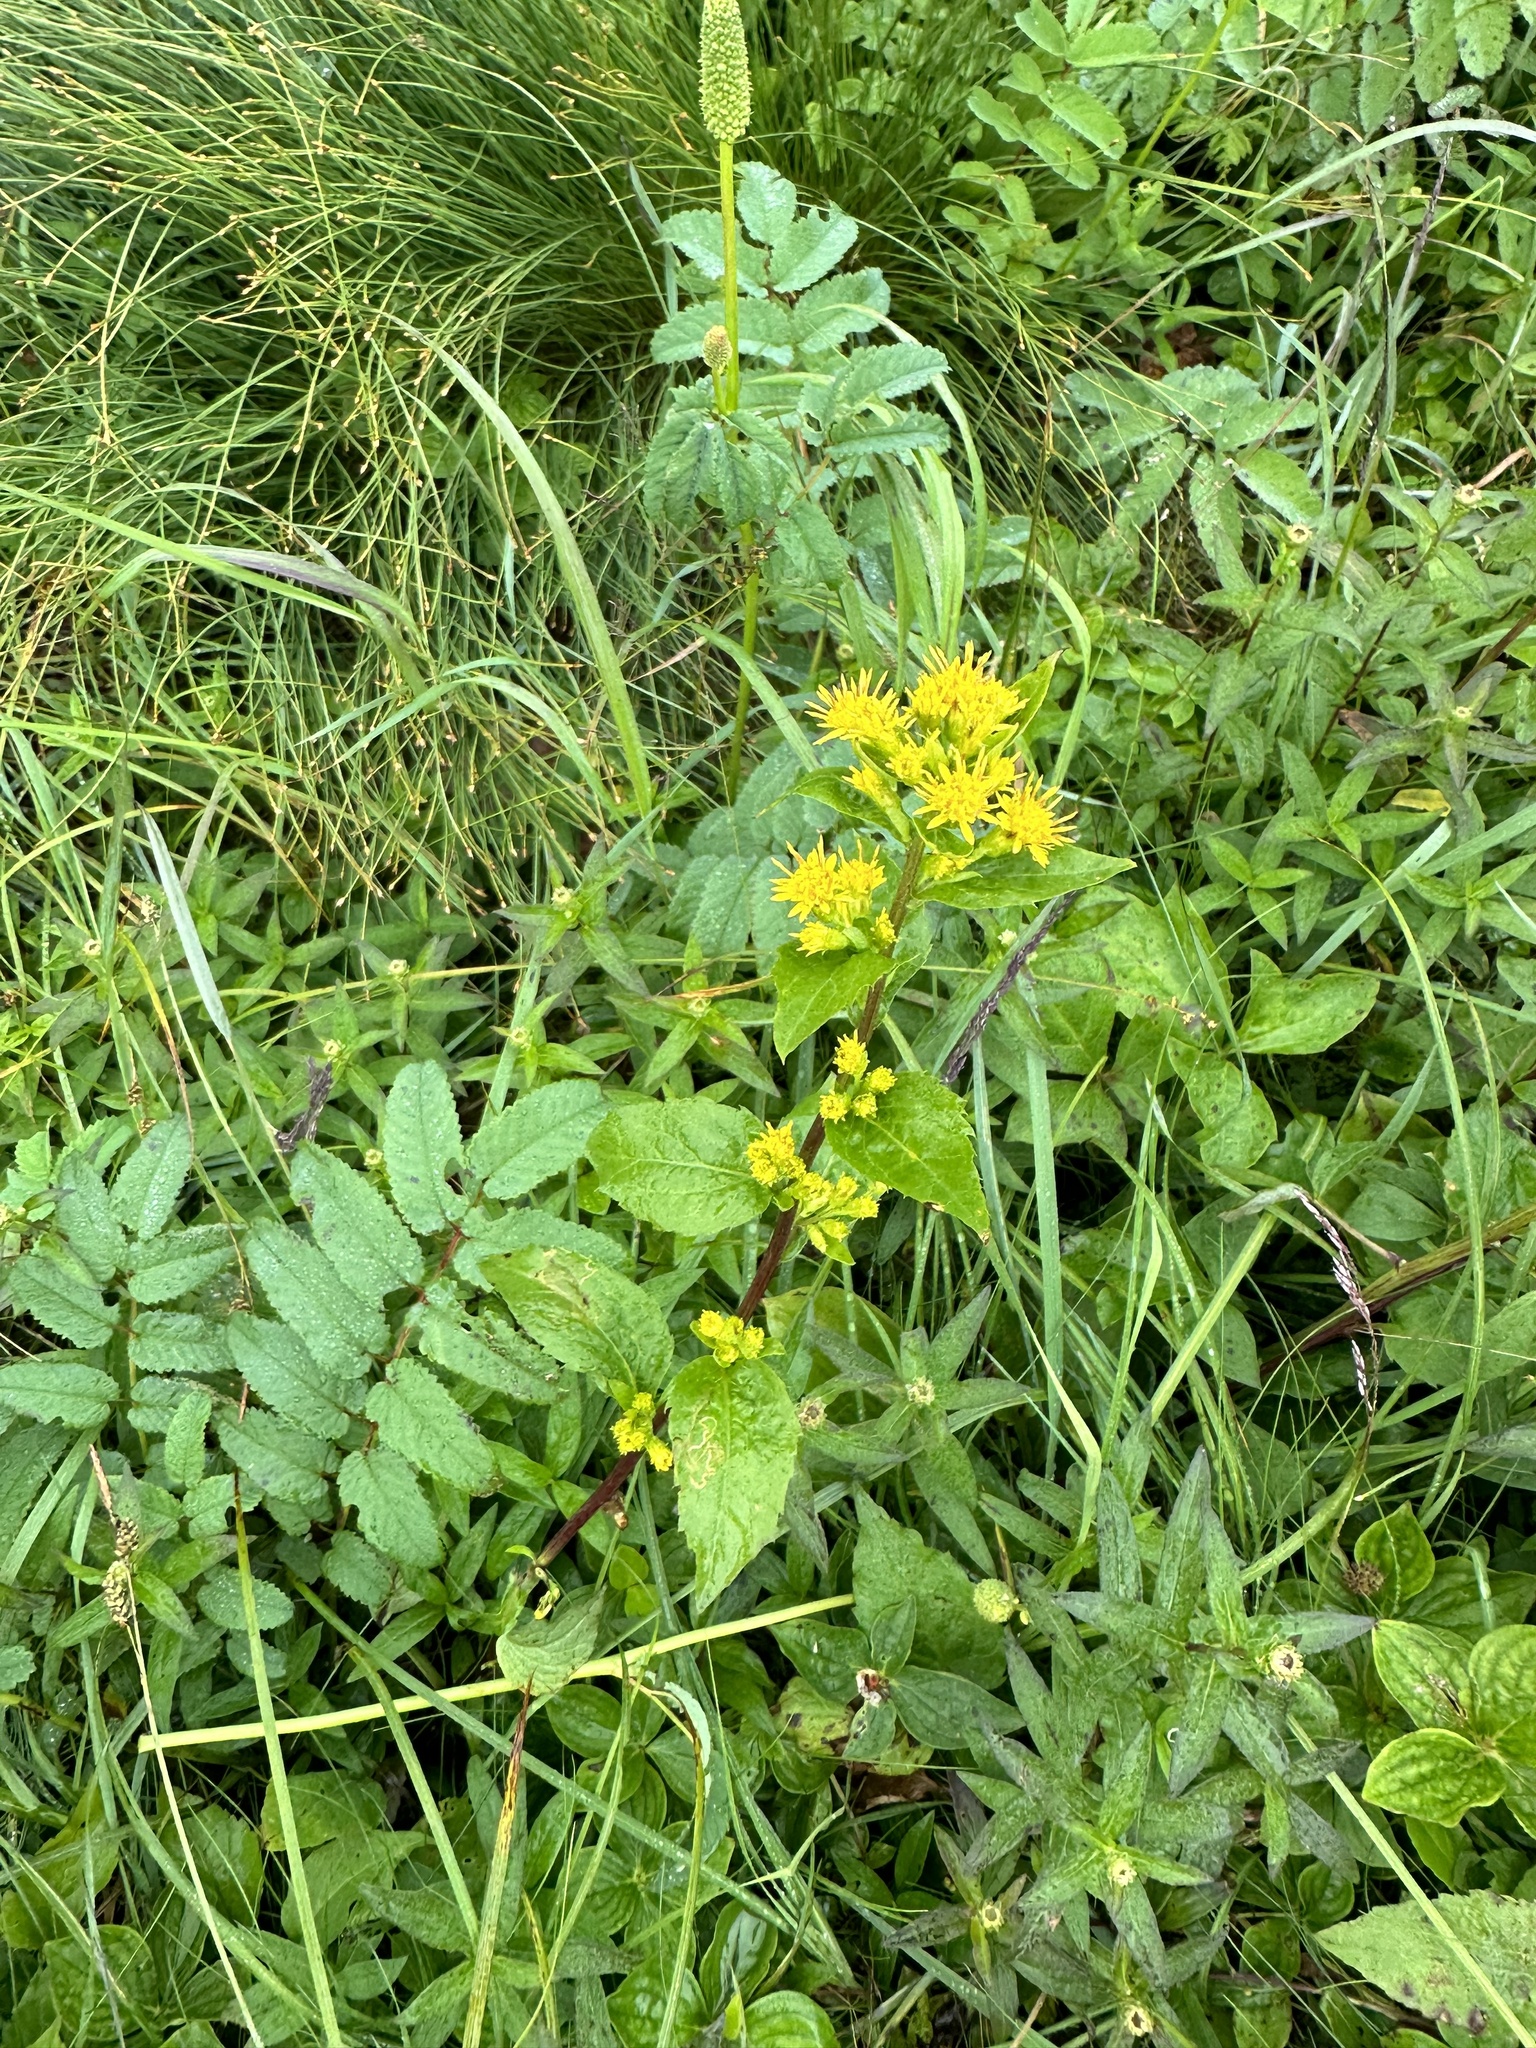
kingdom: Plantae
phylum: Tracheophyta
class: Magnoliopsida
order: Asterales
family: Asteraceae
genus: Solidago
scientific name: Solidago macrophylla
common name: Large-leaved goldenrod
